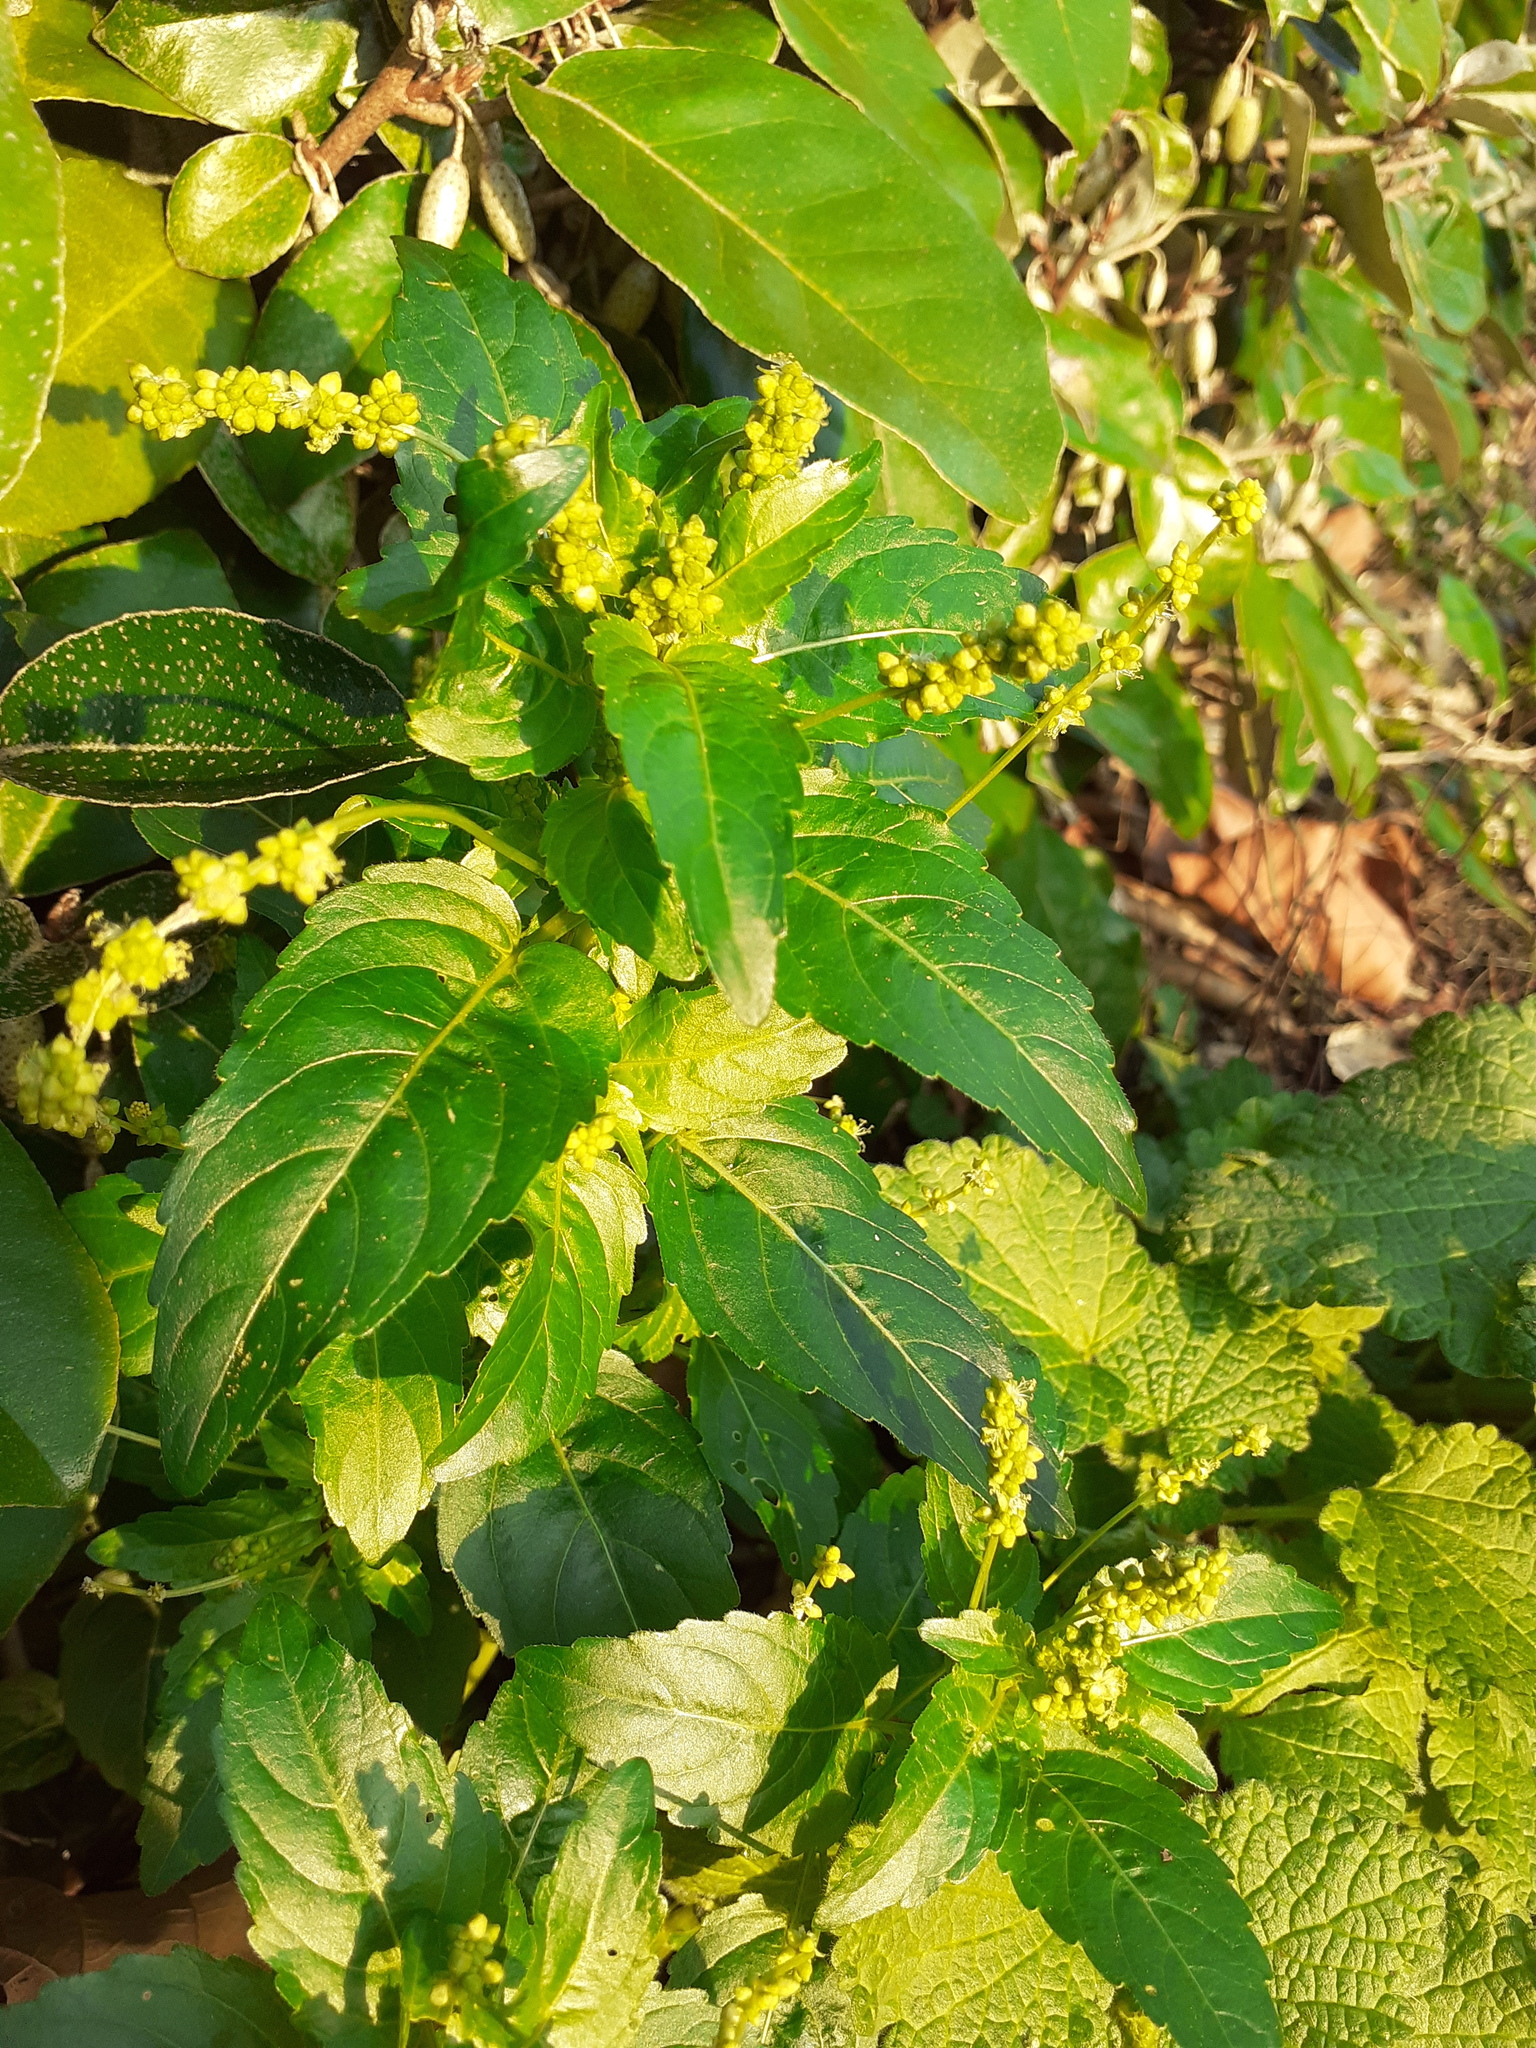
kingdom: Plantae
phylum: Tracheophyta
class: Magnoliopsida
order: Malpighiales
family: Euphorbiaceae
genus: Mercurialis
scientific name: Mercurialis annua
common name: Annual mercury
